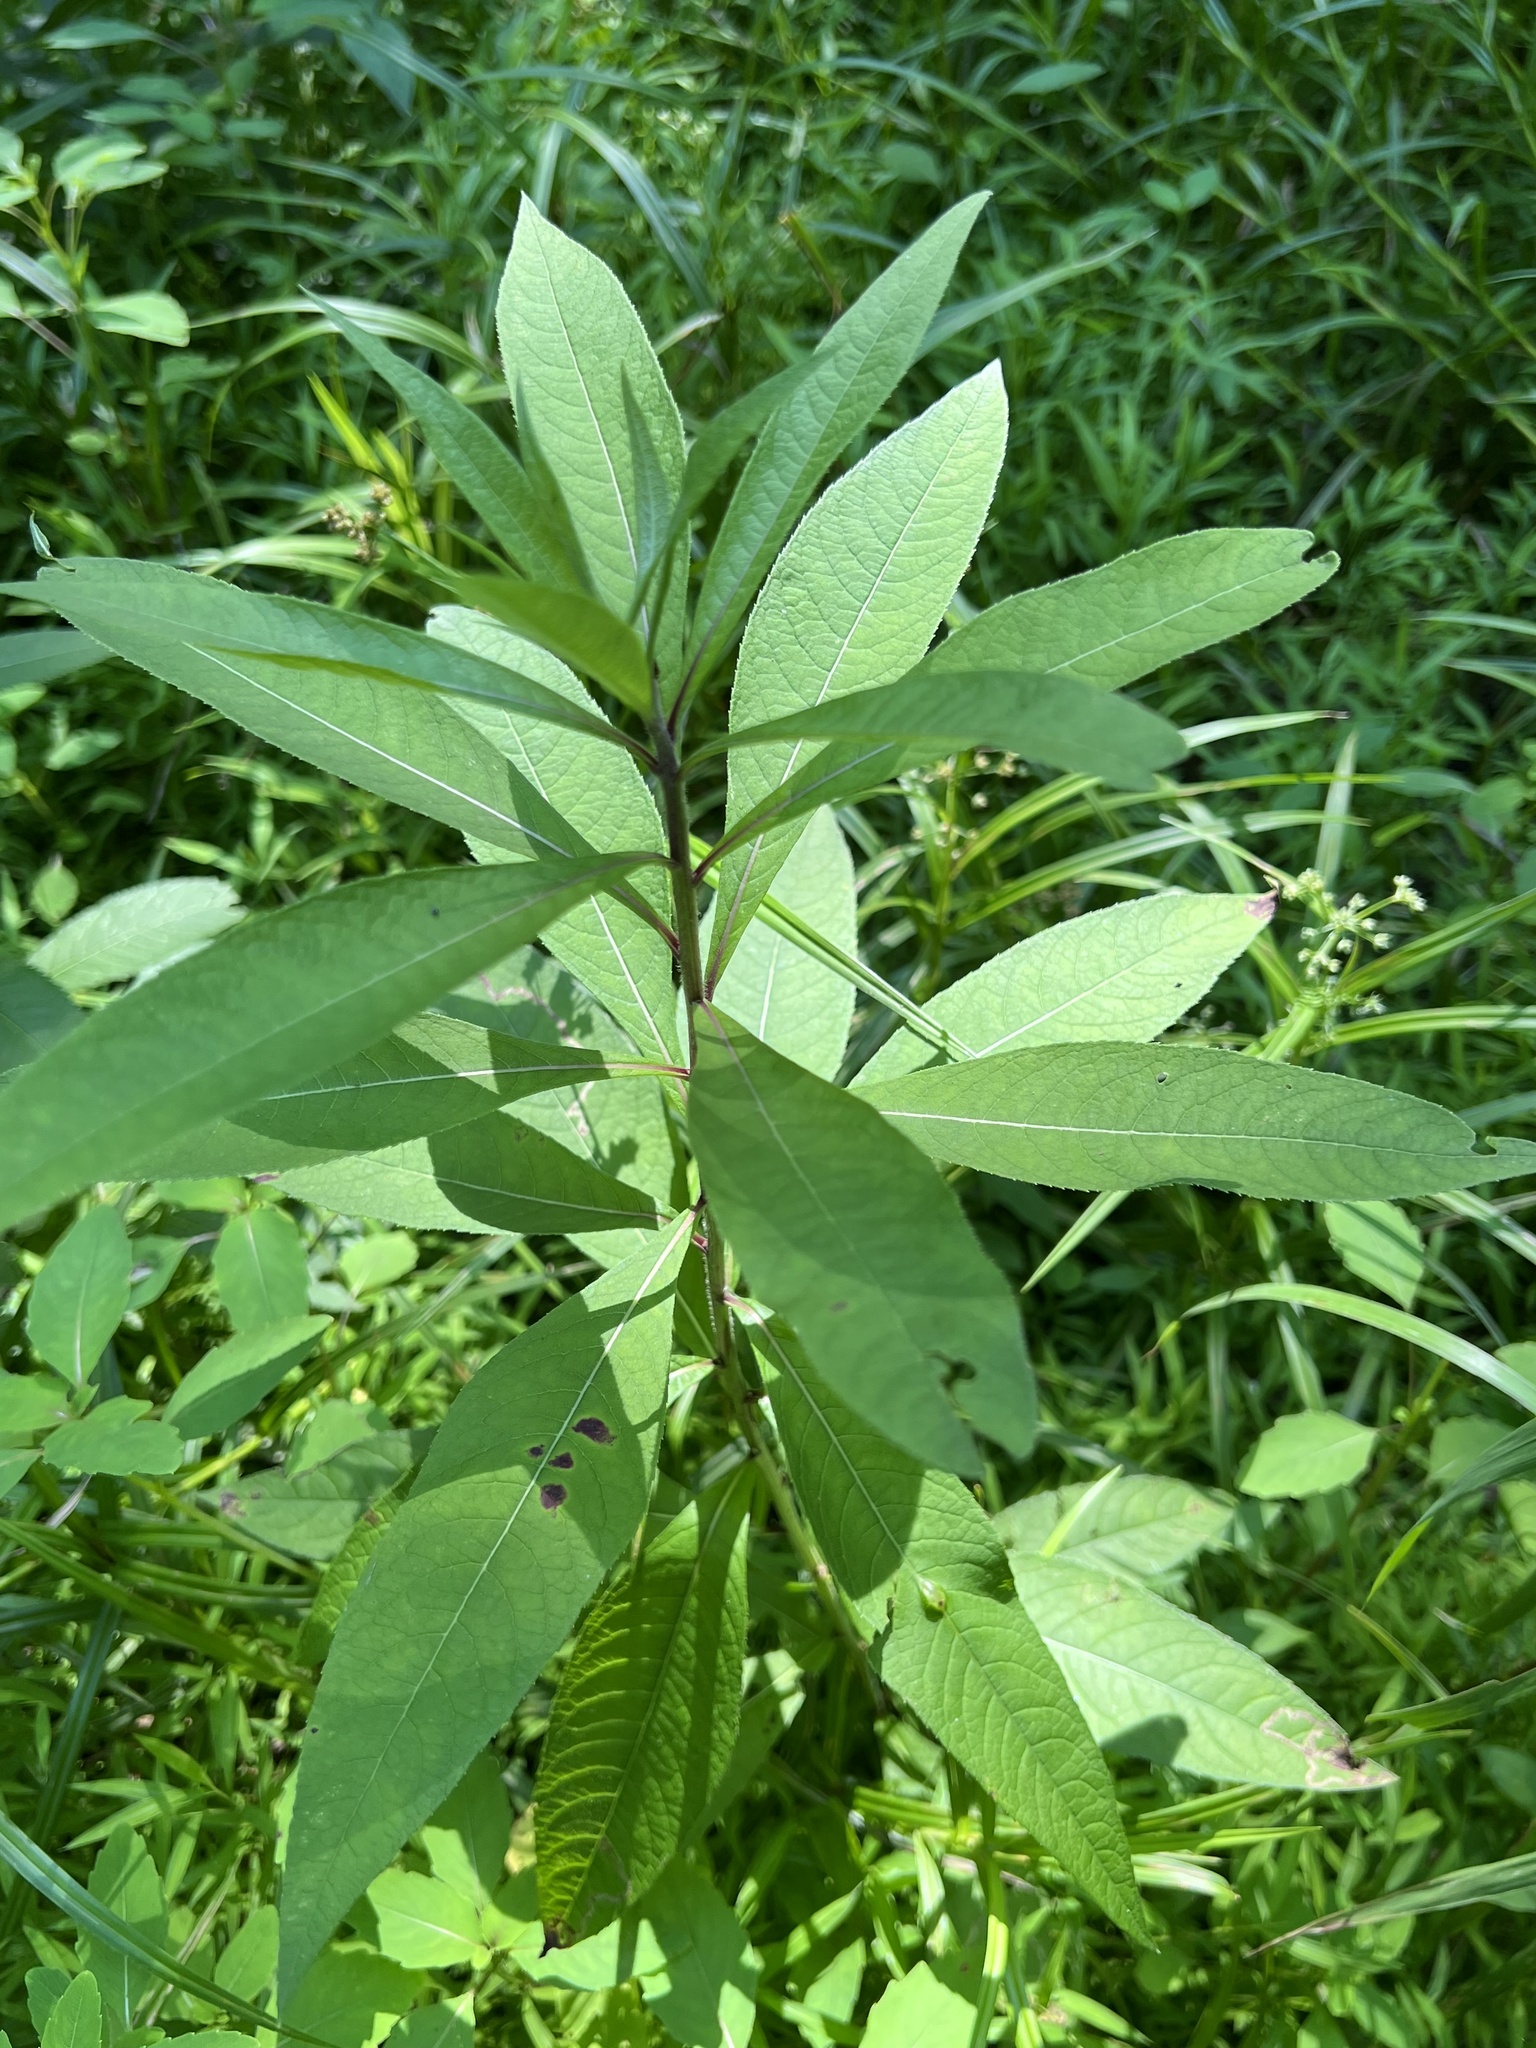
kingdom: Animalia
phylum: Arthropoda
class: Insecta
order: Diptera
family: Cecidomyiidae
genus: Neolasioptera
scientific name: Neolasioptera vernoniae
